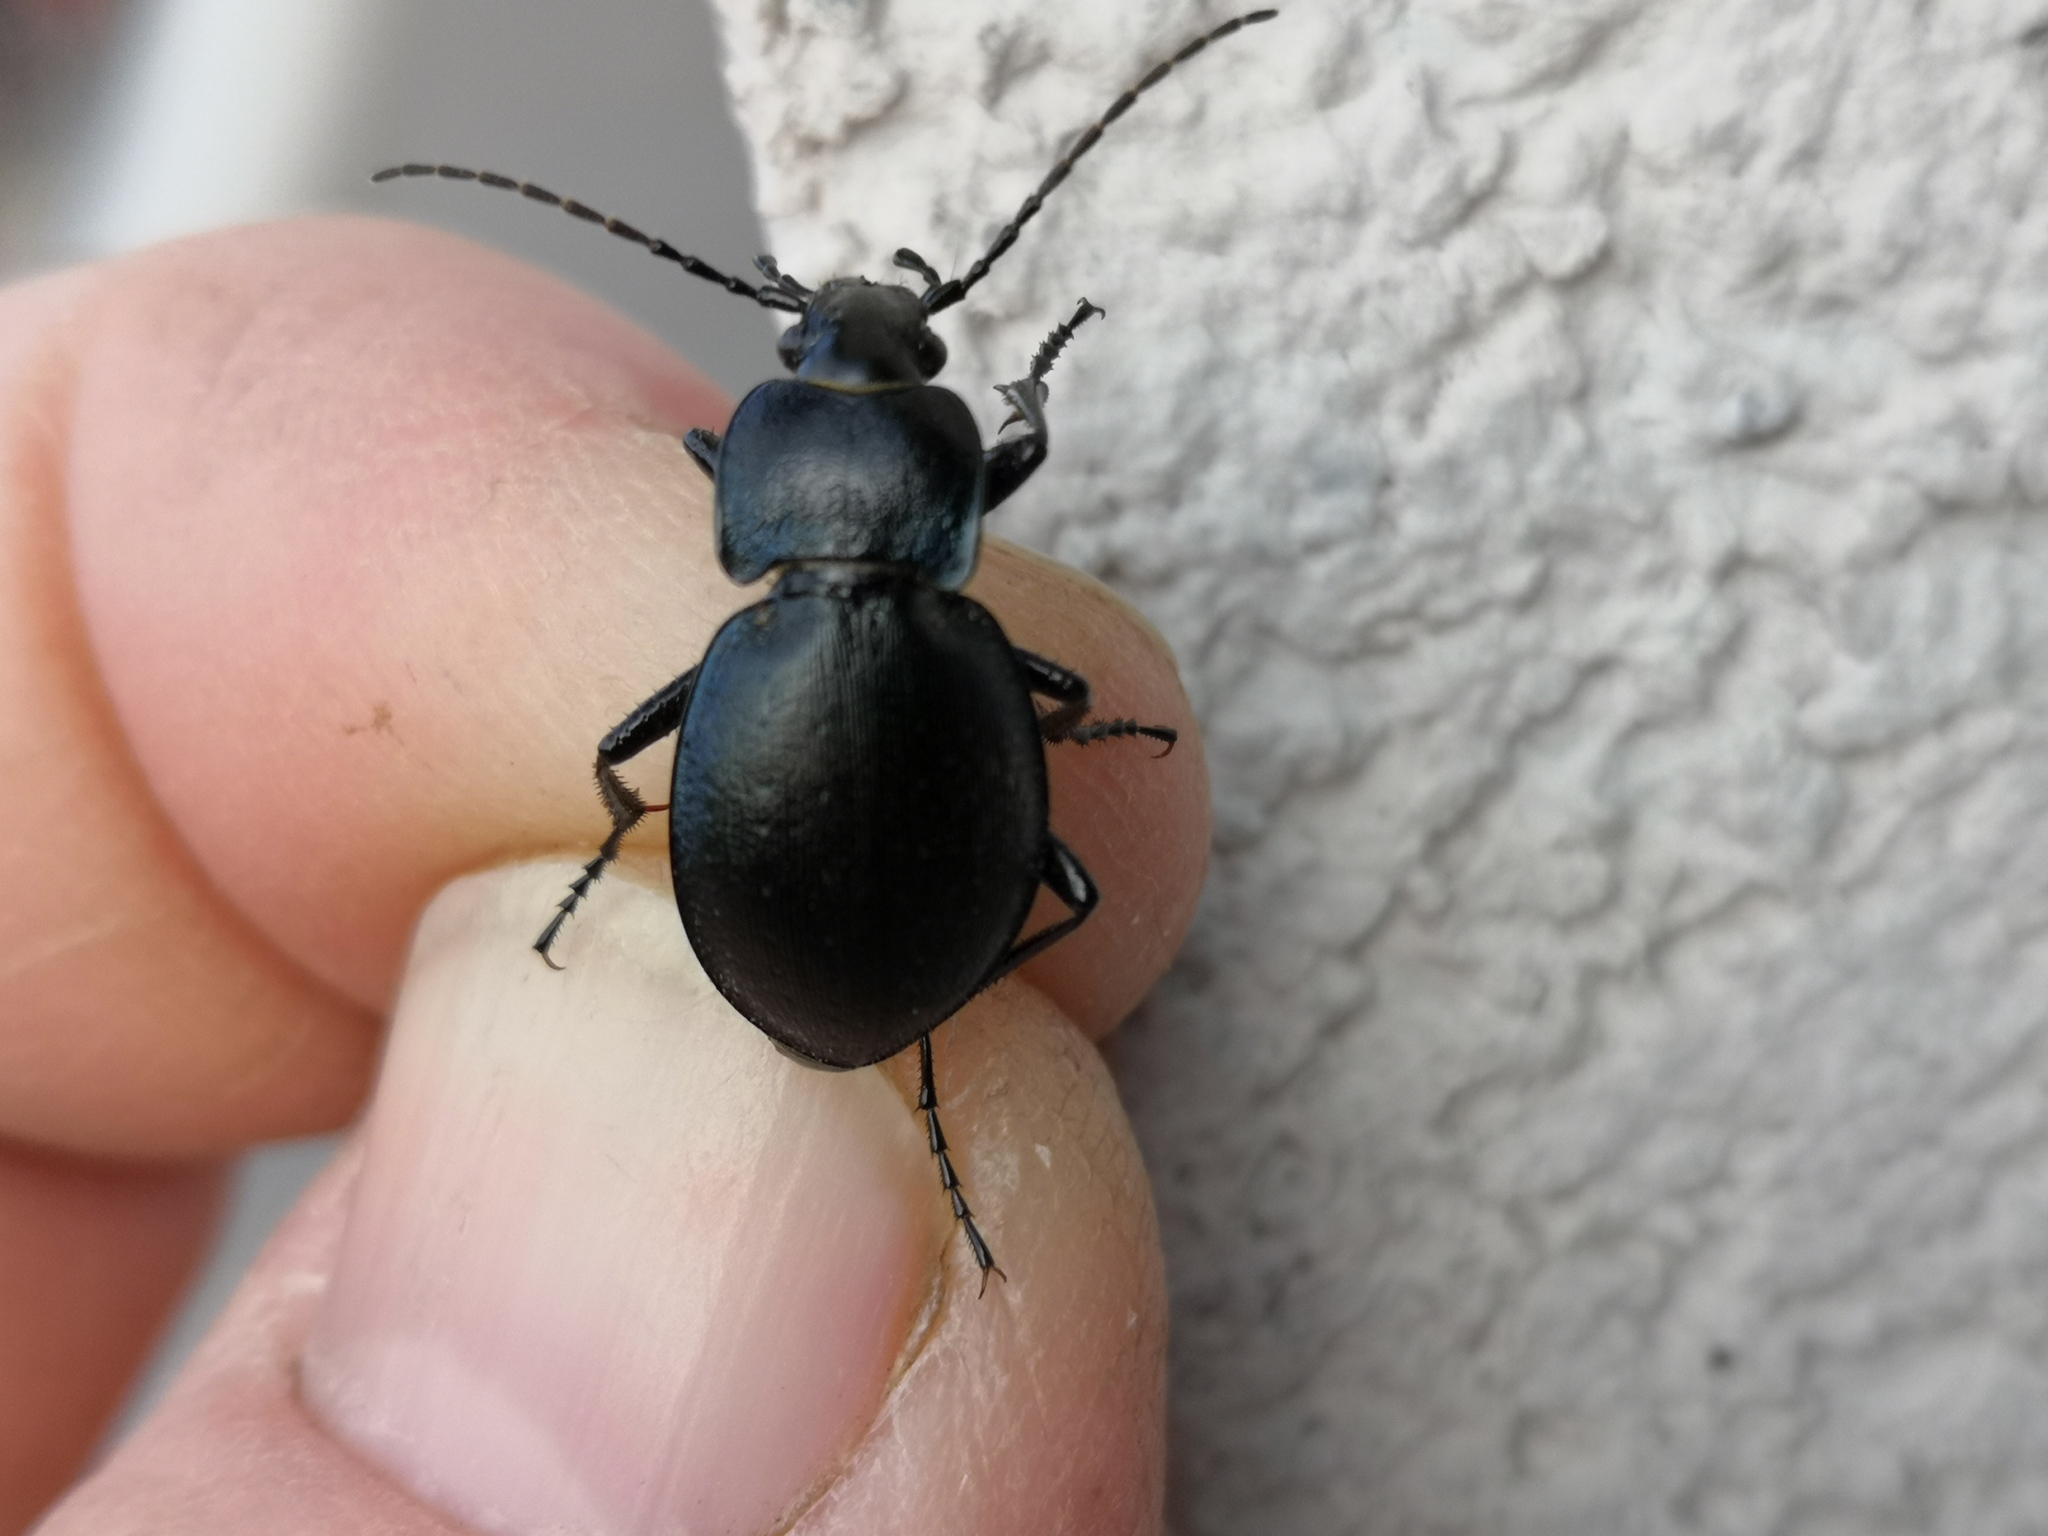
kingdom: Animalia
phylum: Arthropoda
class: Insecta
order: Coleoptera
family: Carabidae
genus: Carabus
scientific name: Carabus convexus
